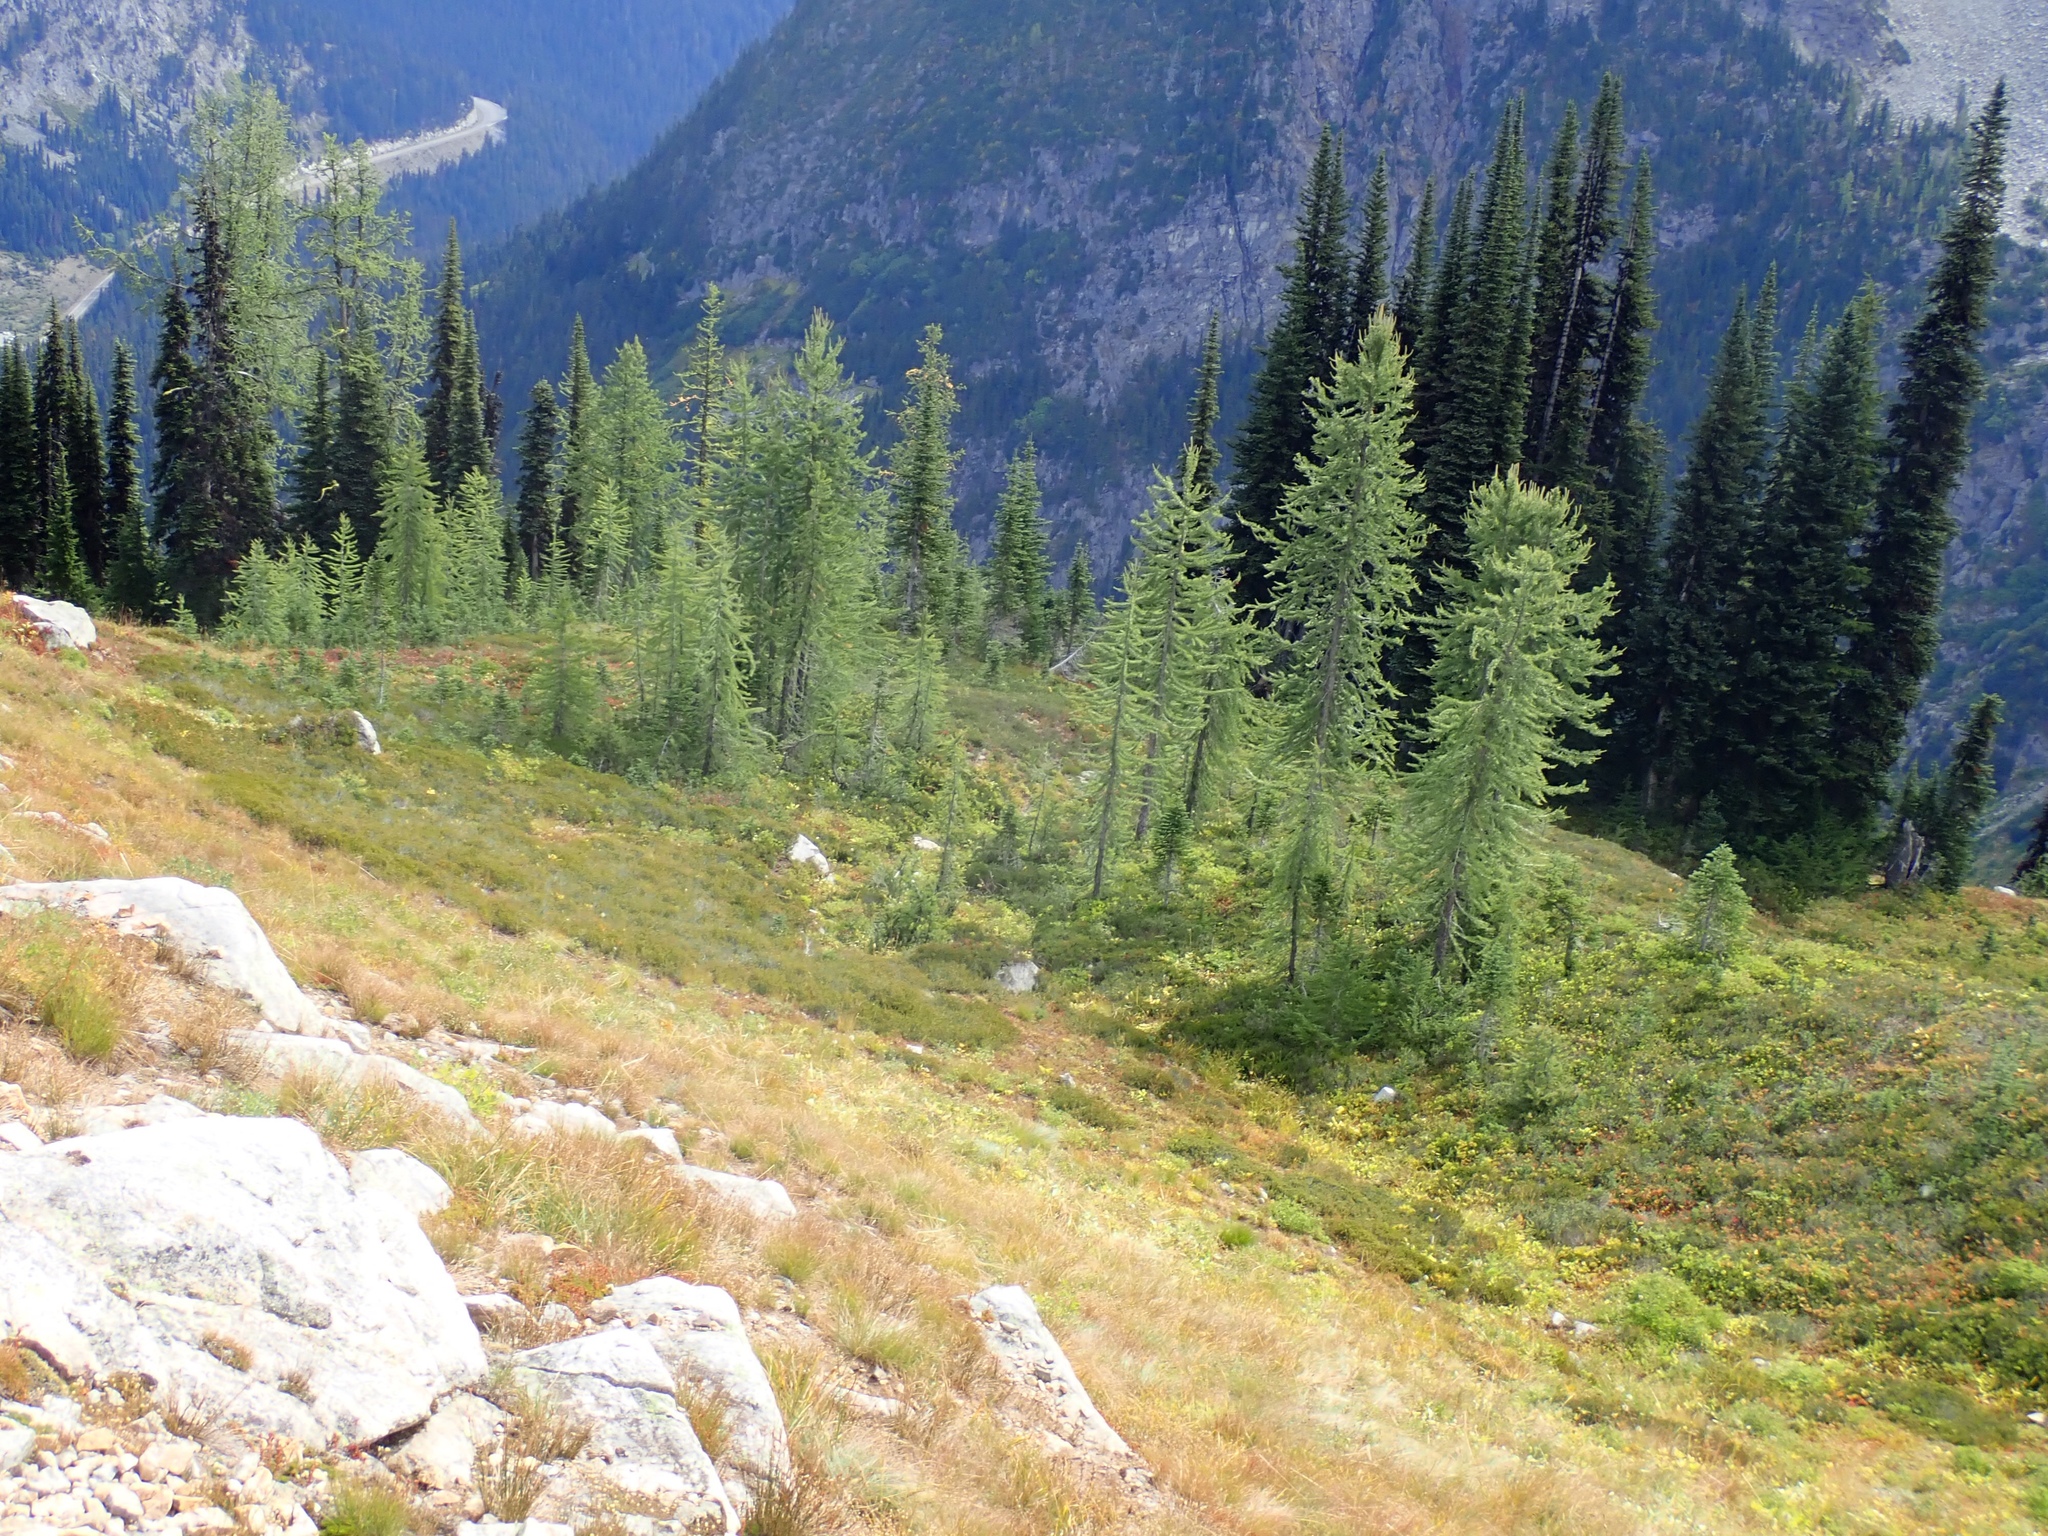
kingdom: Plantae
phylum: Tracheophyta
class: Pinopsida
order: Pinales
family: Pinaceae
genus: Larix
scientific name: Larix lyallii
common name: Alpine larch
